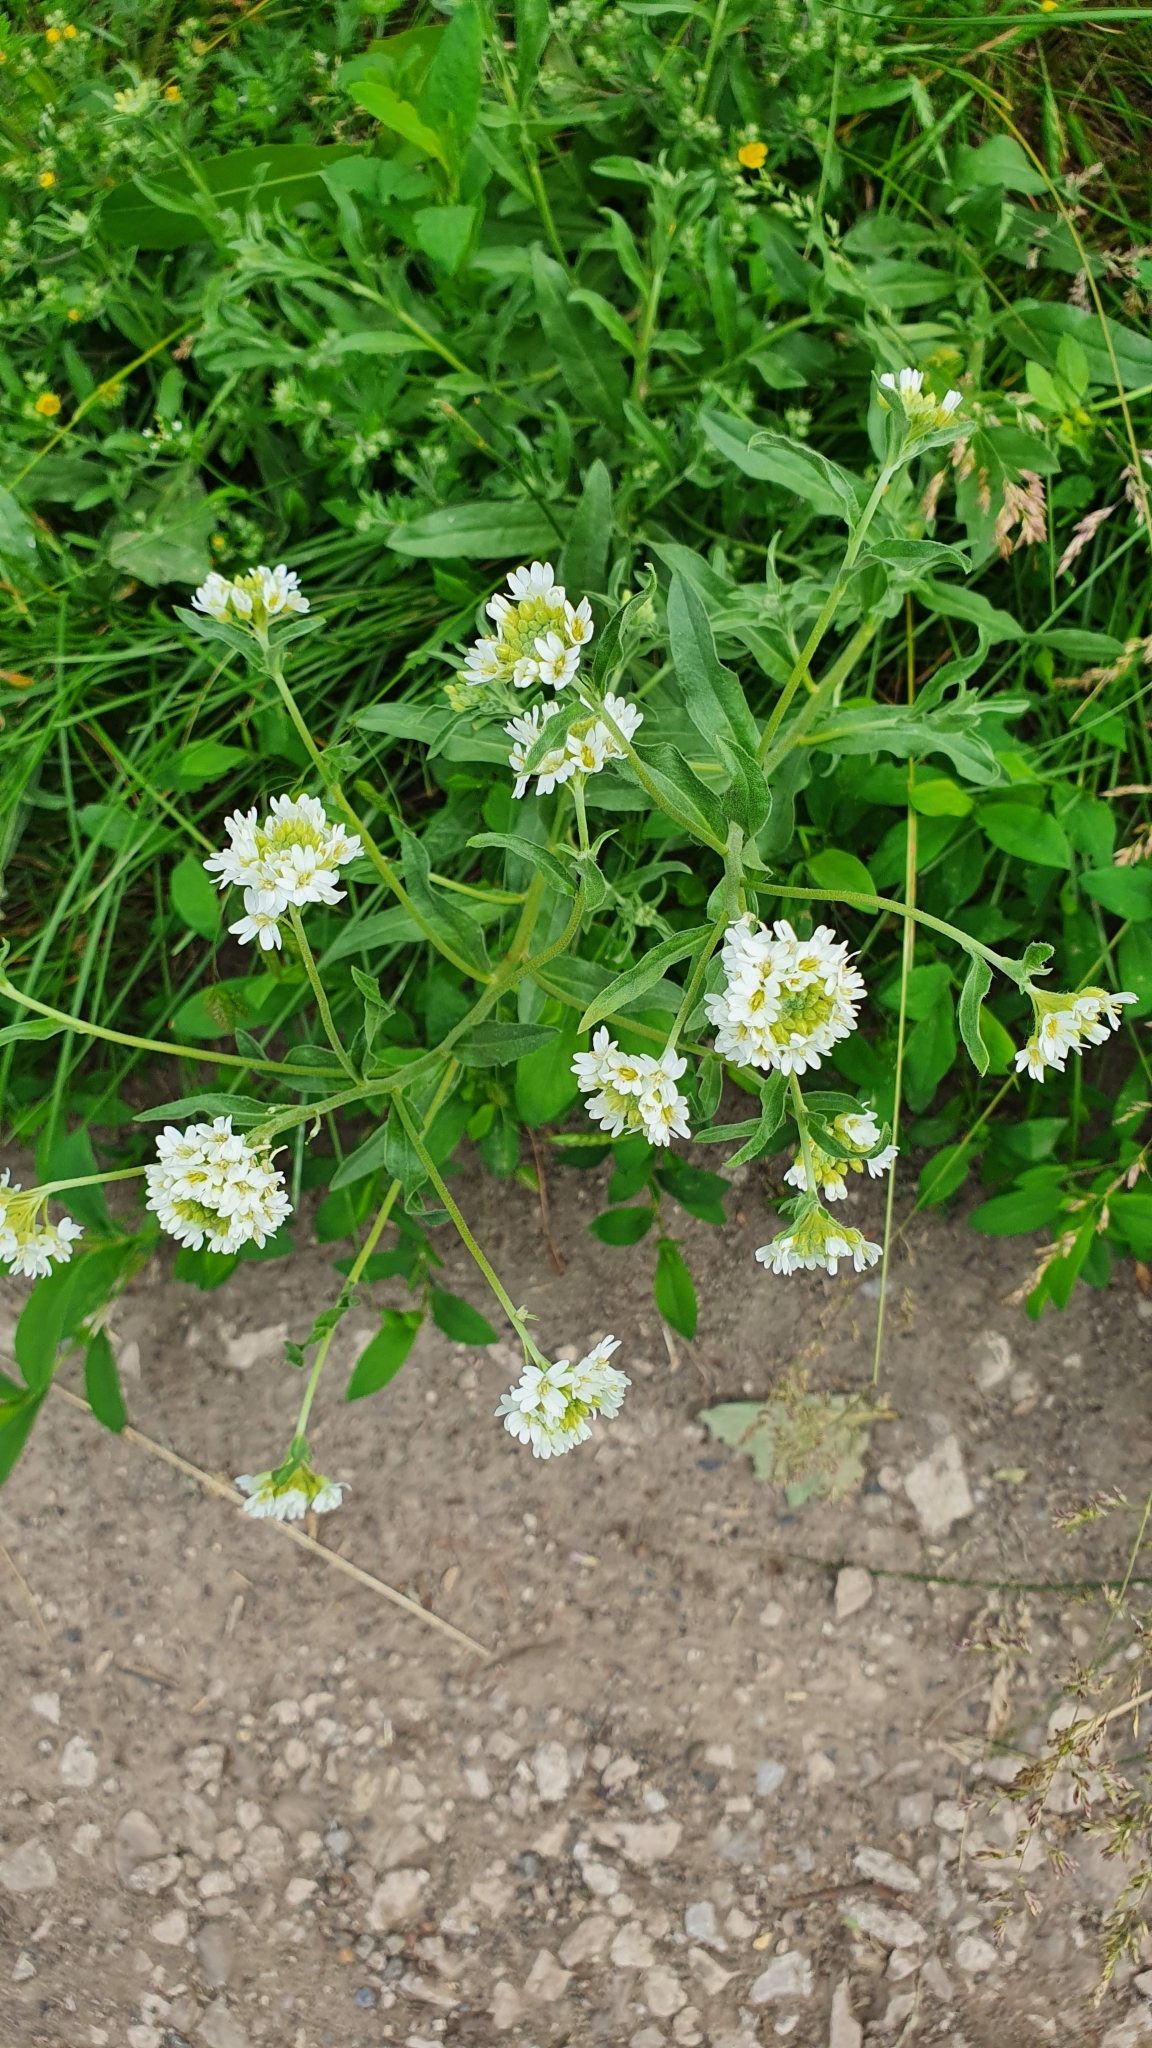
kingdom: Plantae
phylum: Tracheophyta
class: Magnoliopsida
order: Brassicales
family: Brassicaceae
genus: Berteroa
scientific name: Berteroa incana
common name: Hoary alison
